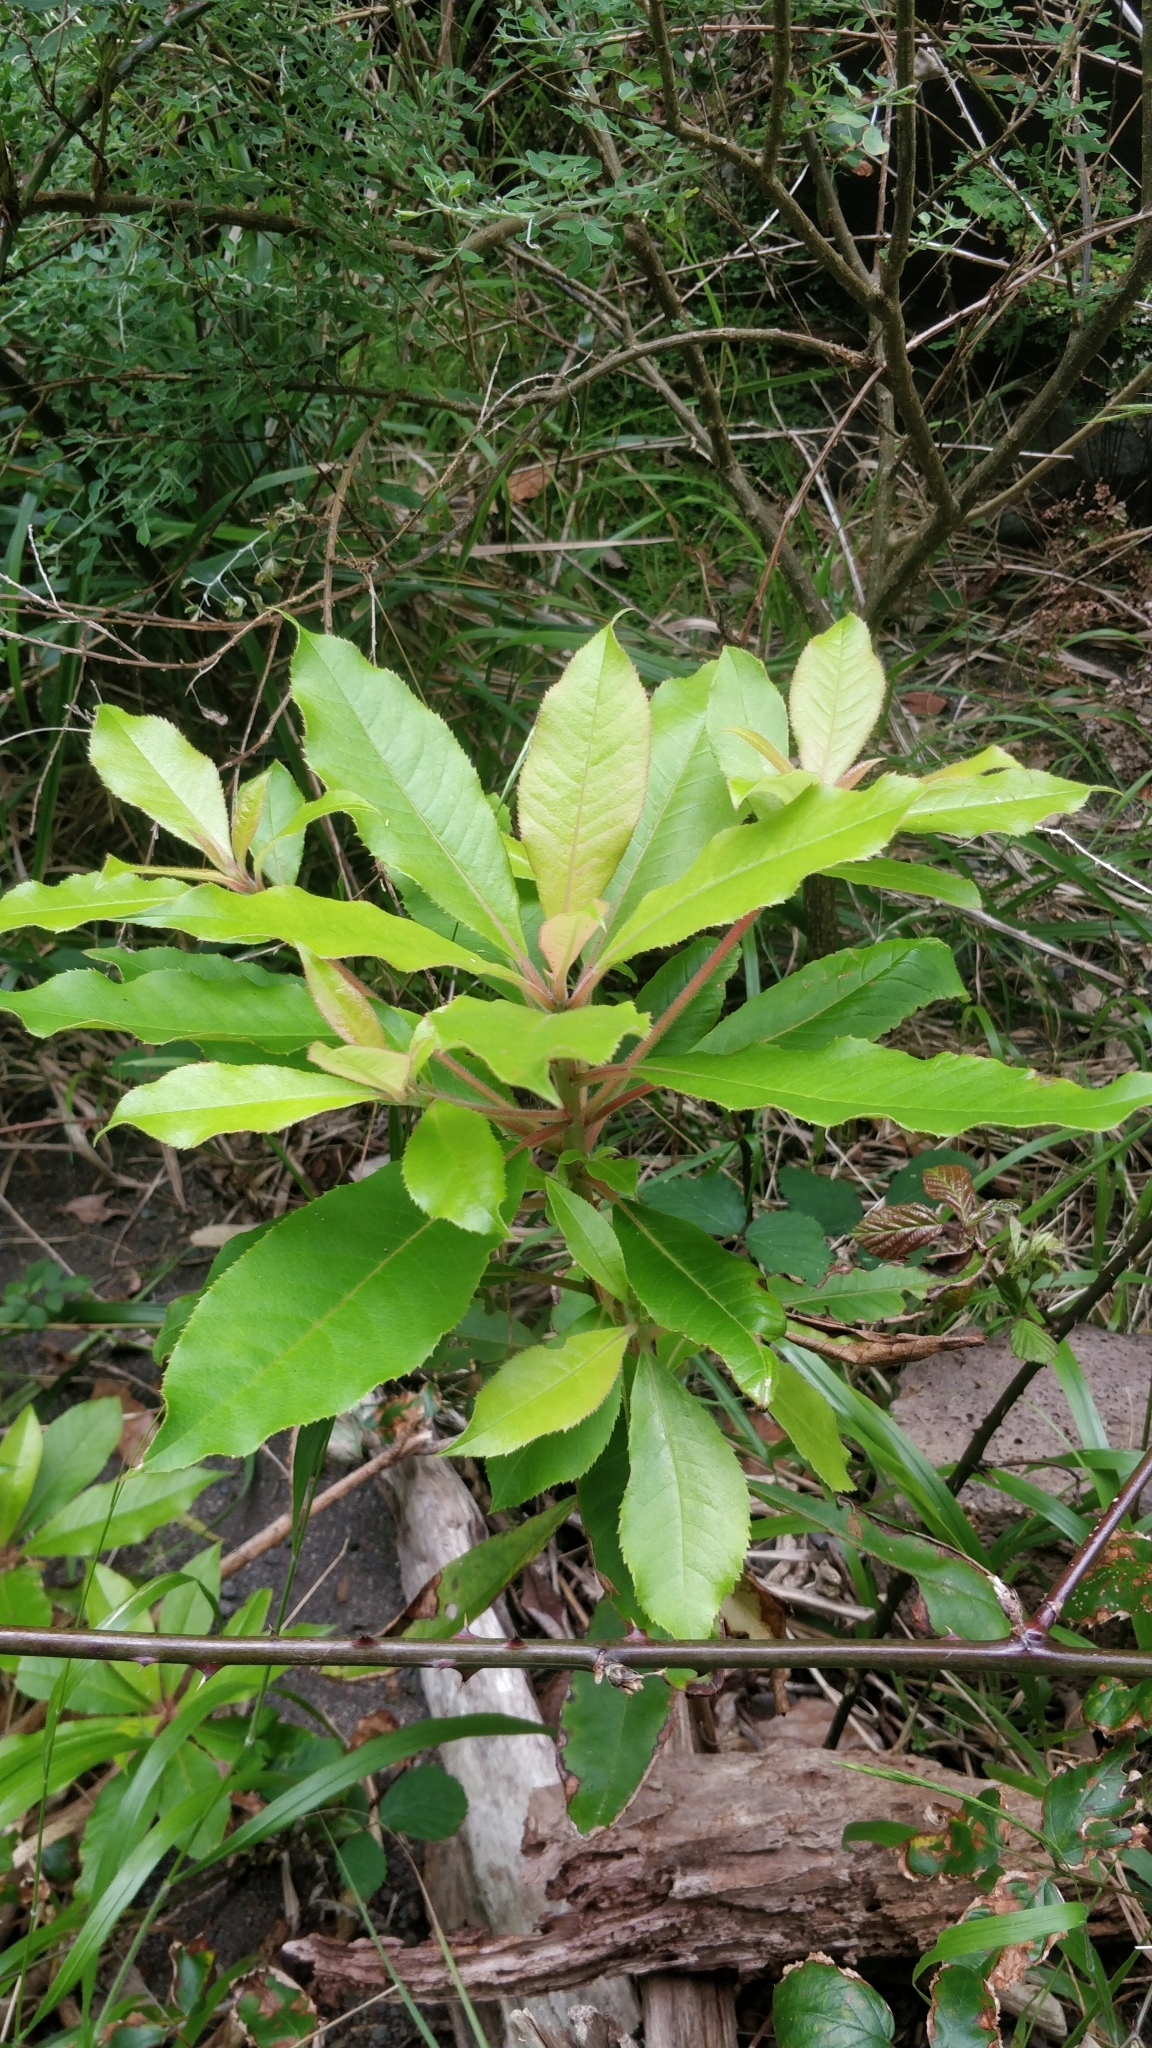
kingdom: Plantae
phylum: Tracheophyta
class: Magnoliopsida
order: Ericales
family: Clethraceae
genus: Clethra
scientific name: Clethra arborea
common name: Lily-of-the-valley-tree
